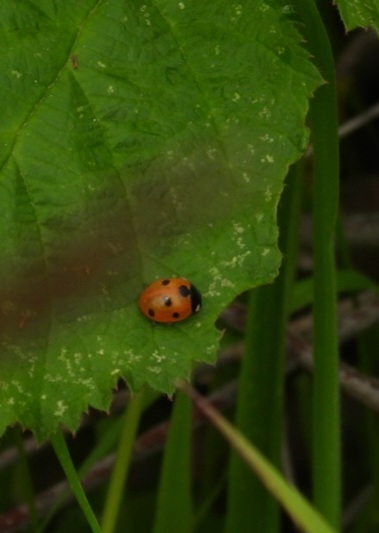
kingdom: Animalia
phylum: Arthropoda
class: Insecta
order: Coleoptera
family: Coccinellidae
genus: Coccinella
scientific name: Coccinella septempunctata
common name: Sevenspotted lady beetle
